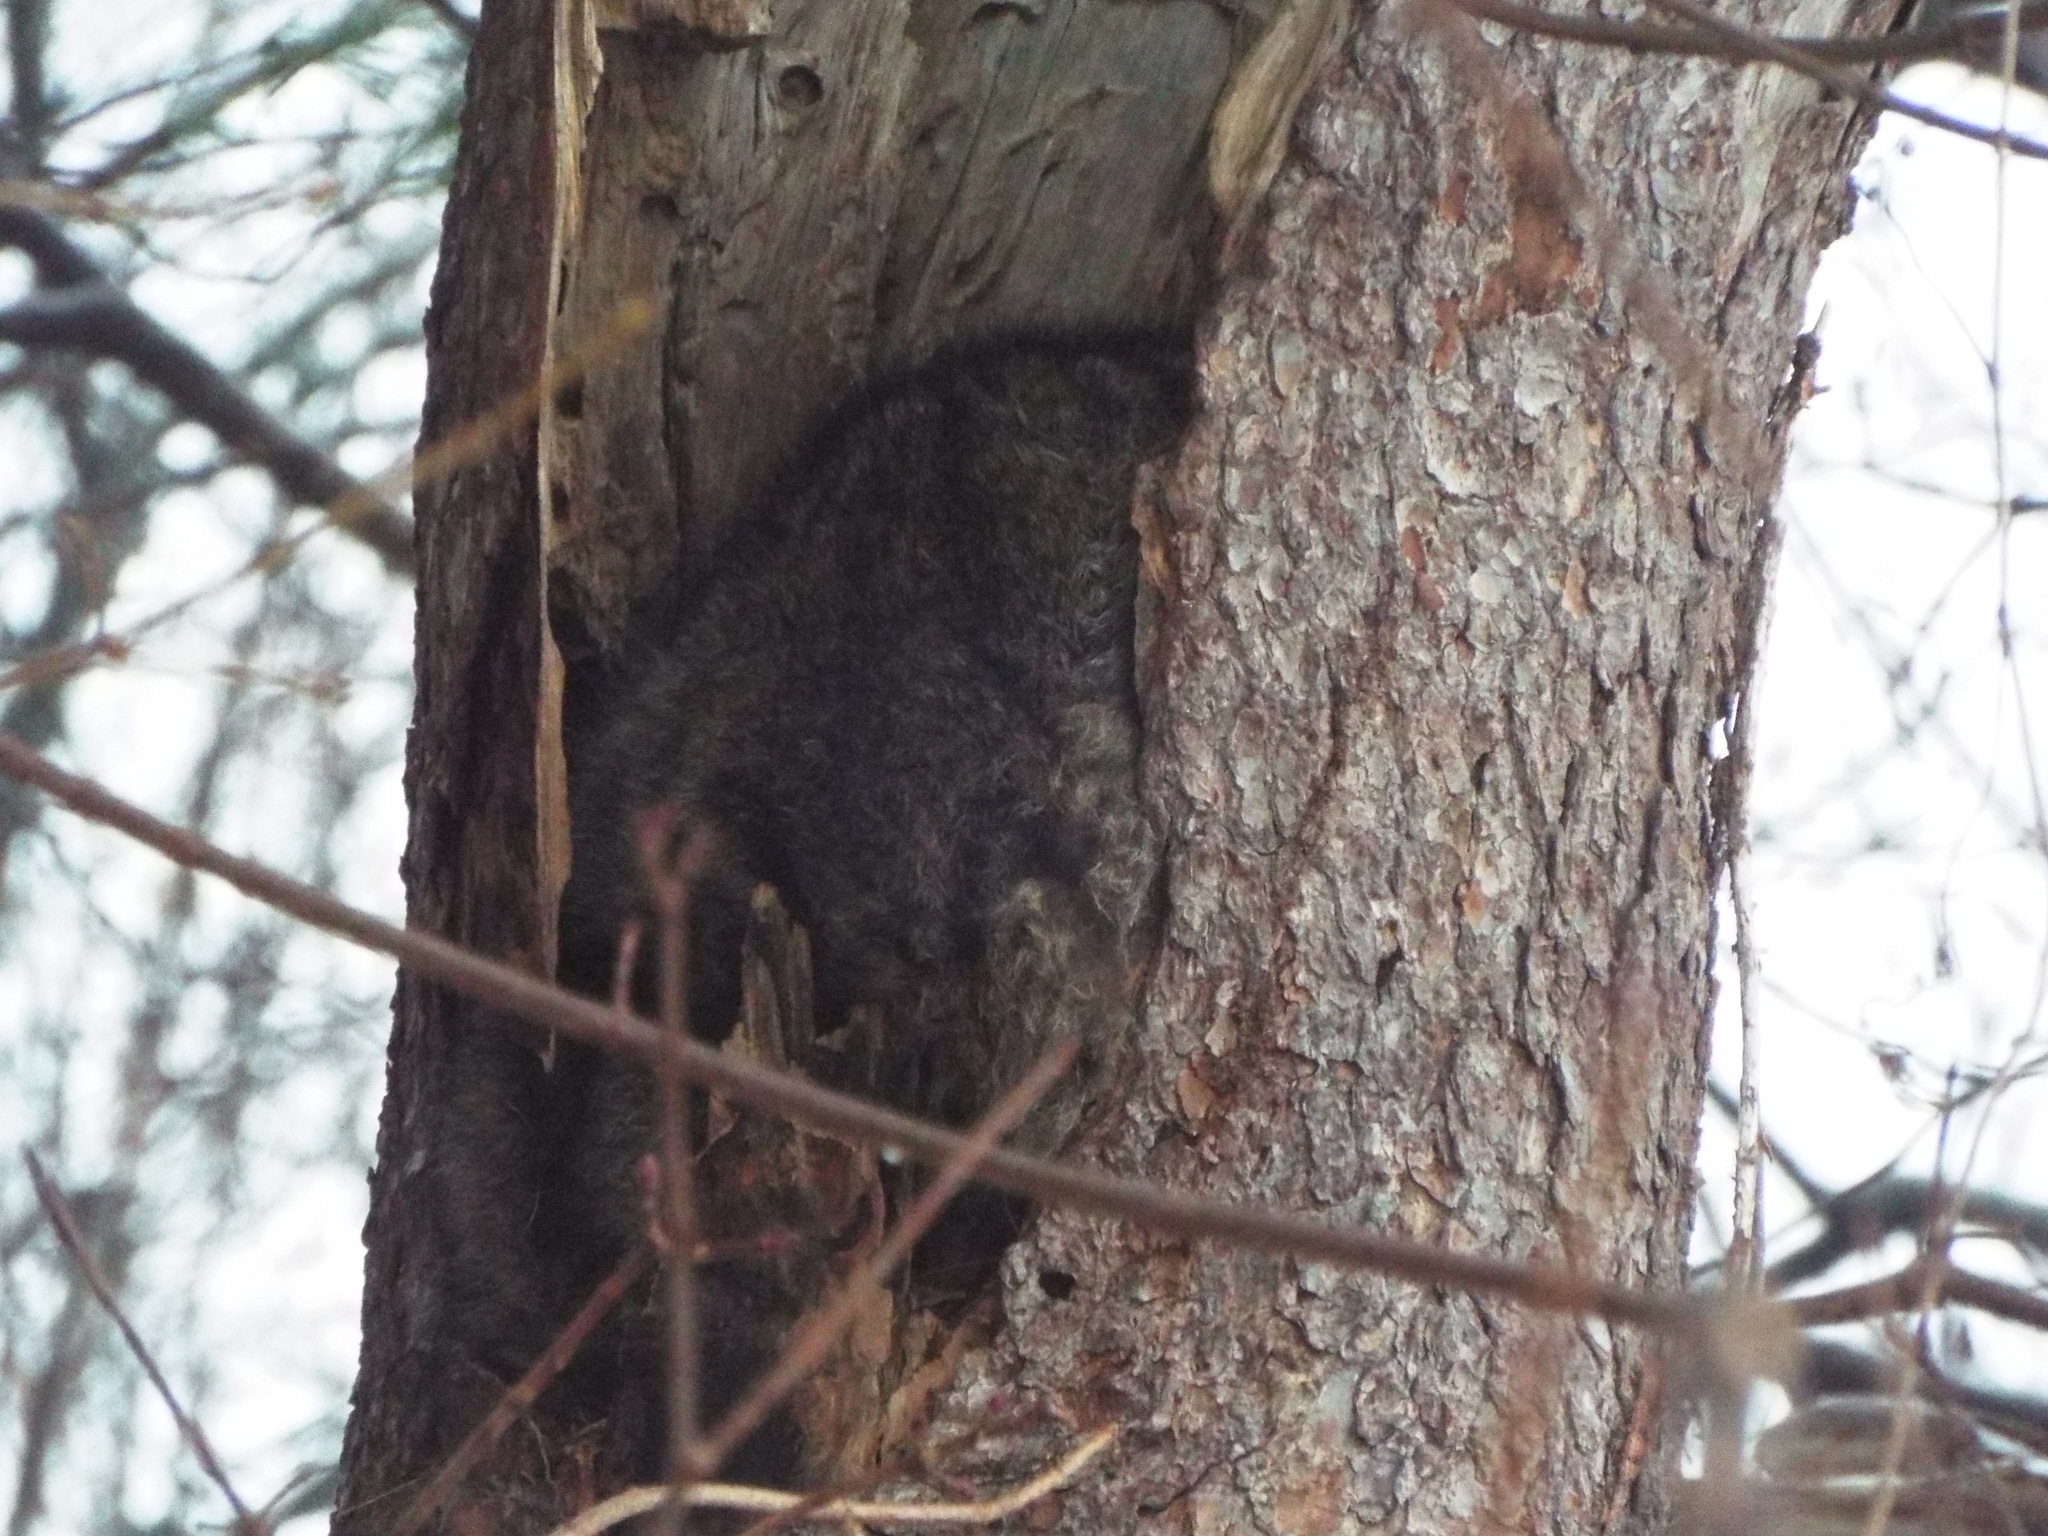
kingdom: Animalia
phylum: Chordata
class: Mammalia
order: Carnivora
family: Procyonidae
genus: Procyon
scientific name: Procyon lotor
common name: Raccoon
